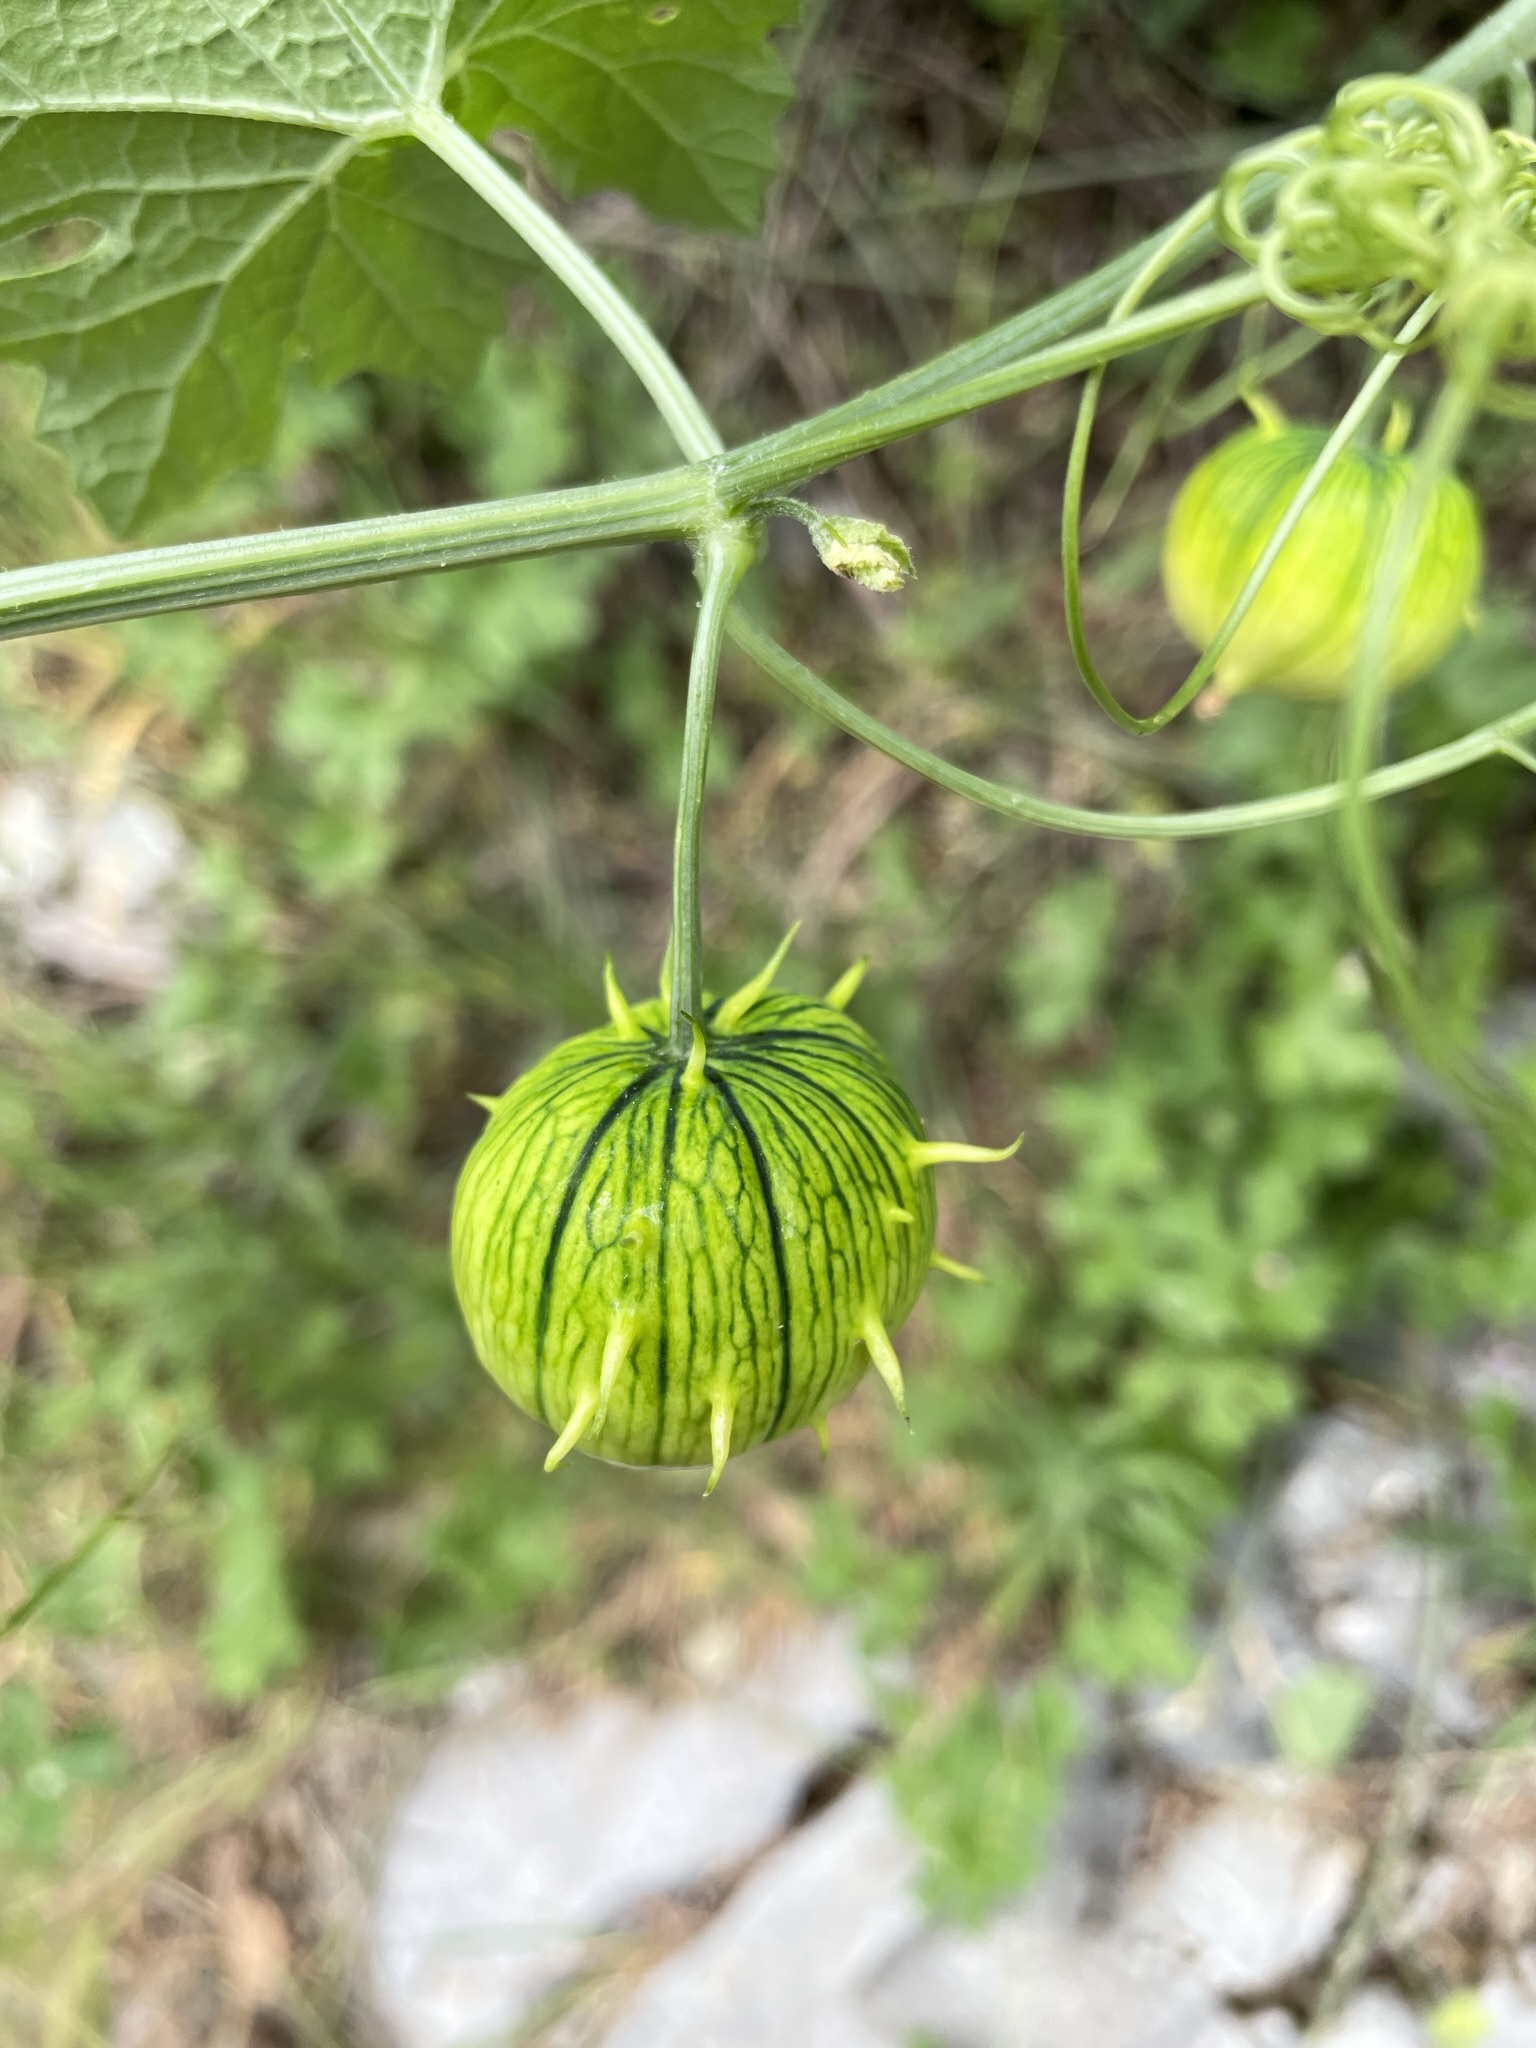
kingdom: Plantae
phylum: Tracheophyta
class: Magnoliopsida
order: Cucurbitales
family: Cucurbitaceae
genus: Marah
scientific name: Marah watsonii
